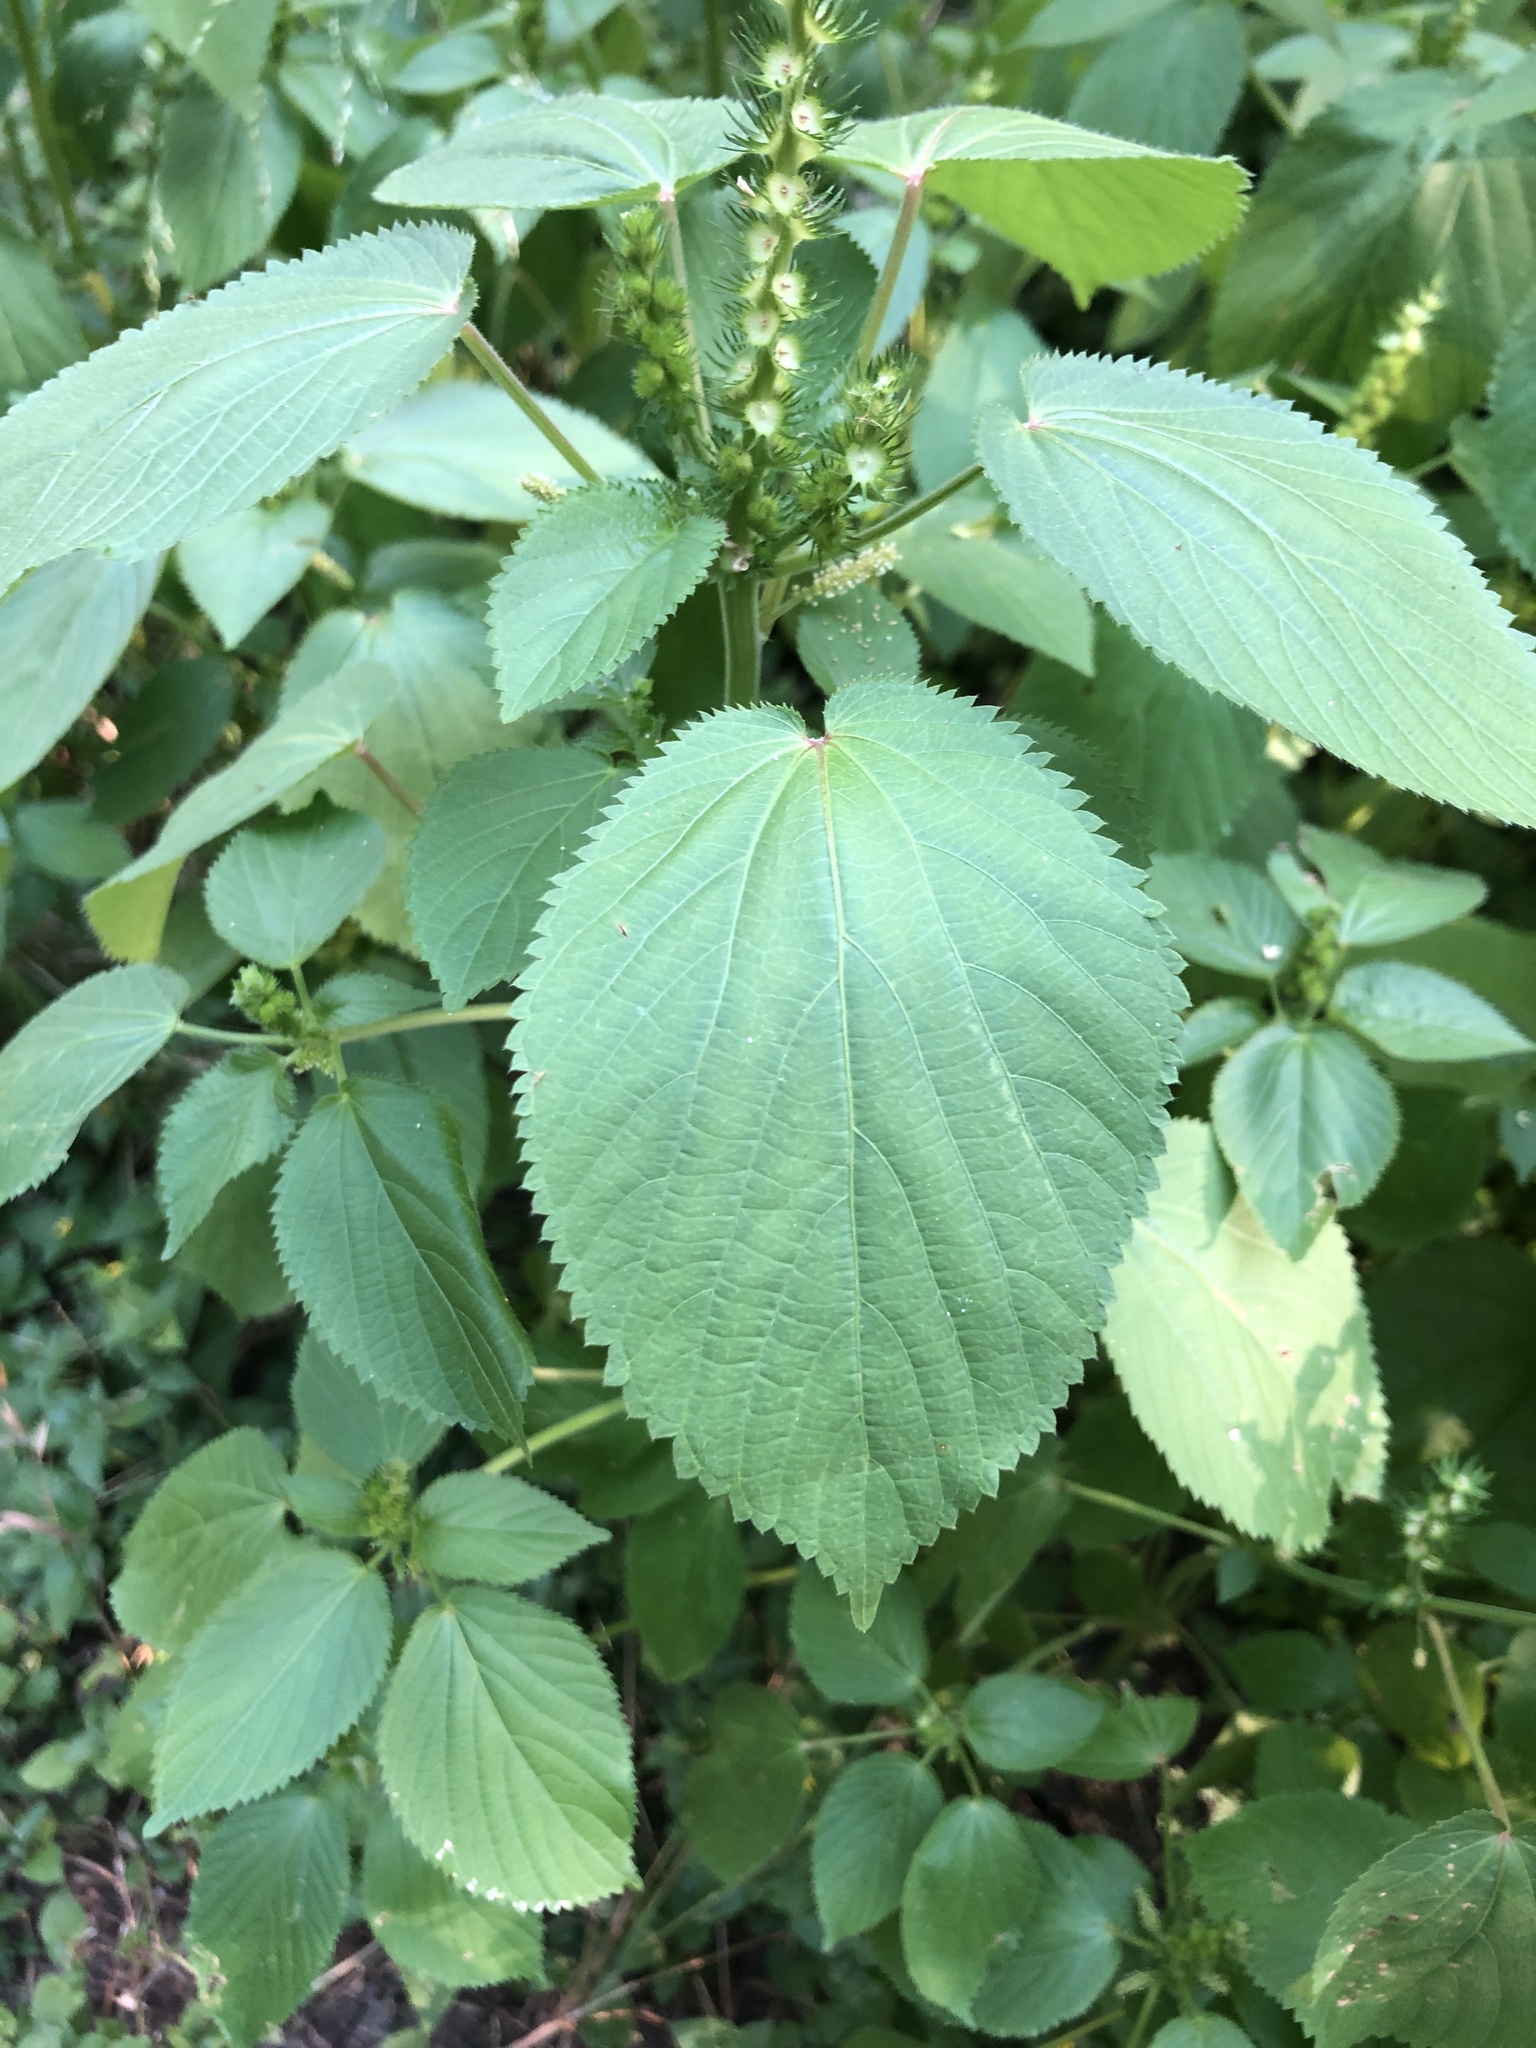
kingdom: Plantae
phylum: Tracheophyta
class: Magnoliopsida
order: Malpighiales
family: Euphorbiaceae
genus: Acalypha
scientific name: Acalypha ostryifolia
